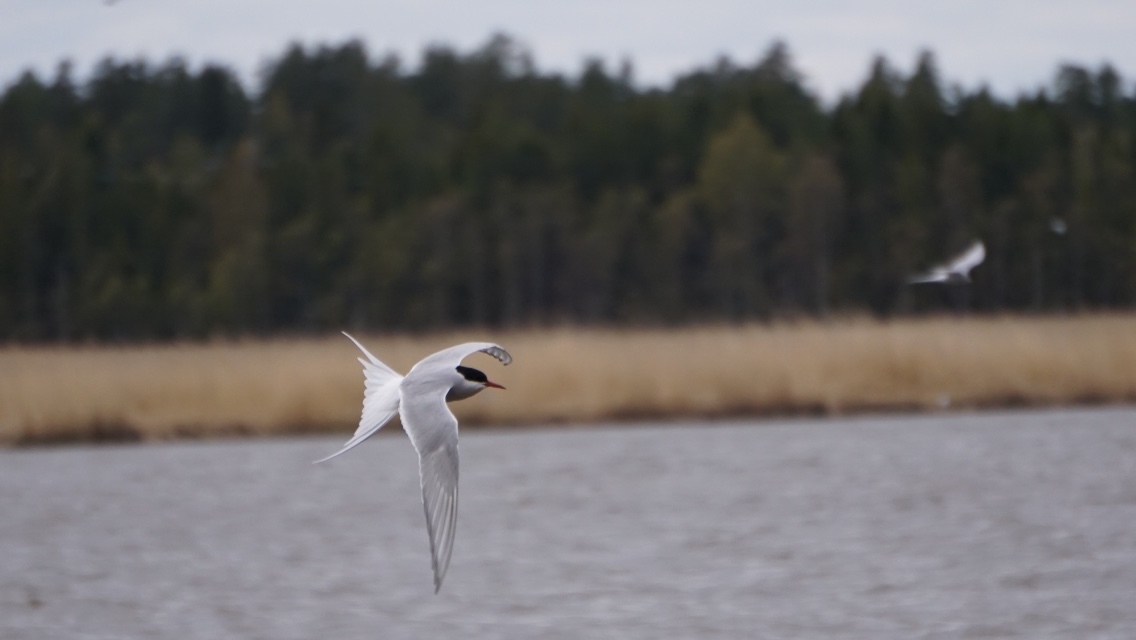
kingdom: Animalia
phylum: Chordata
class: Aves
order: Charadriiformes
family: Laridae
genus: Sterna
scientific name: Sterna paradisaea
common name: Arctic tern
